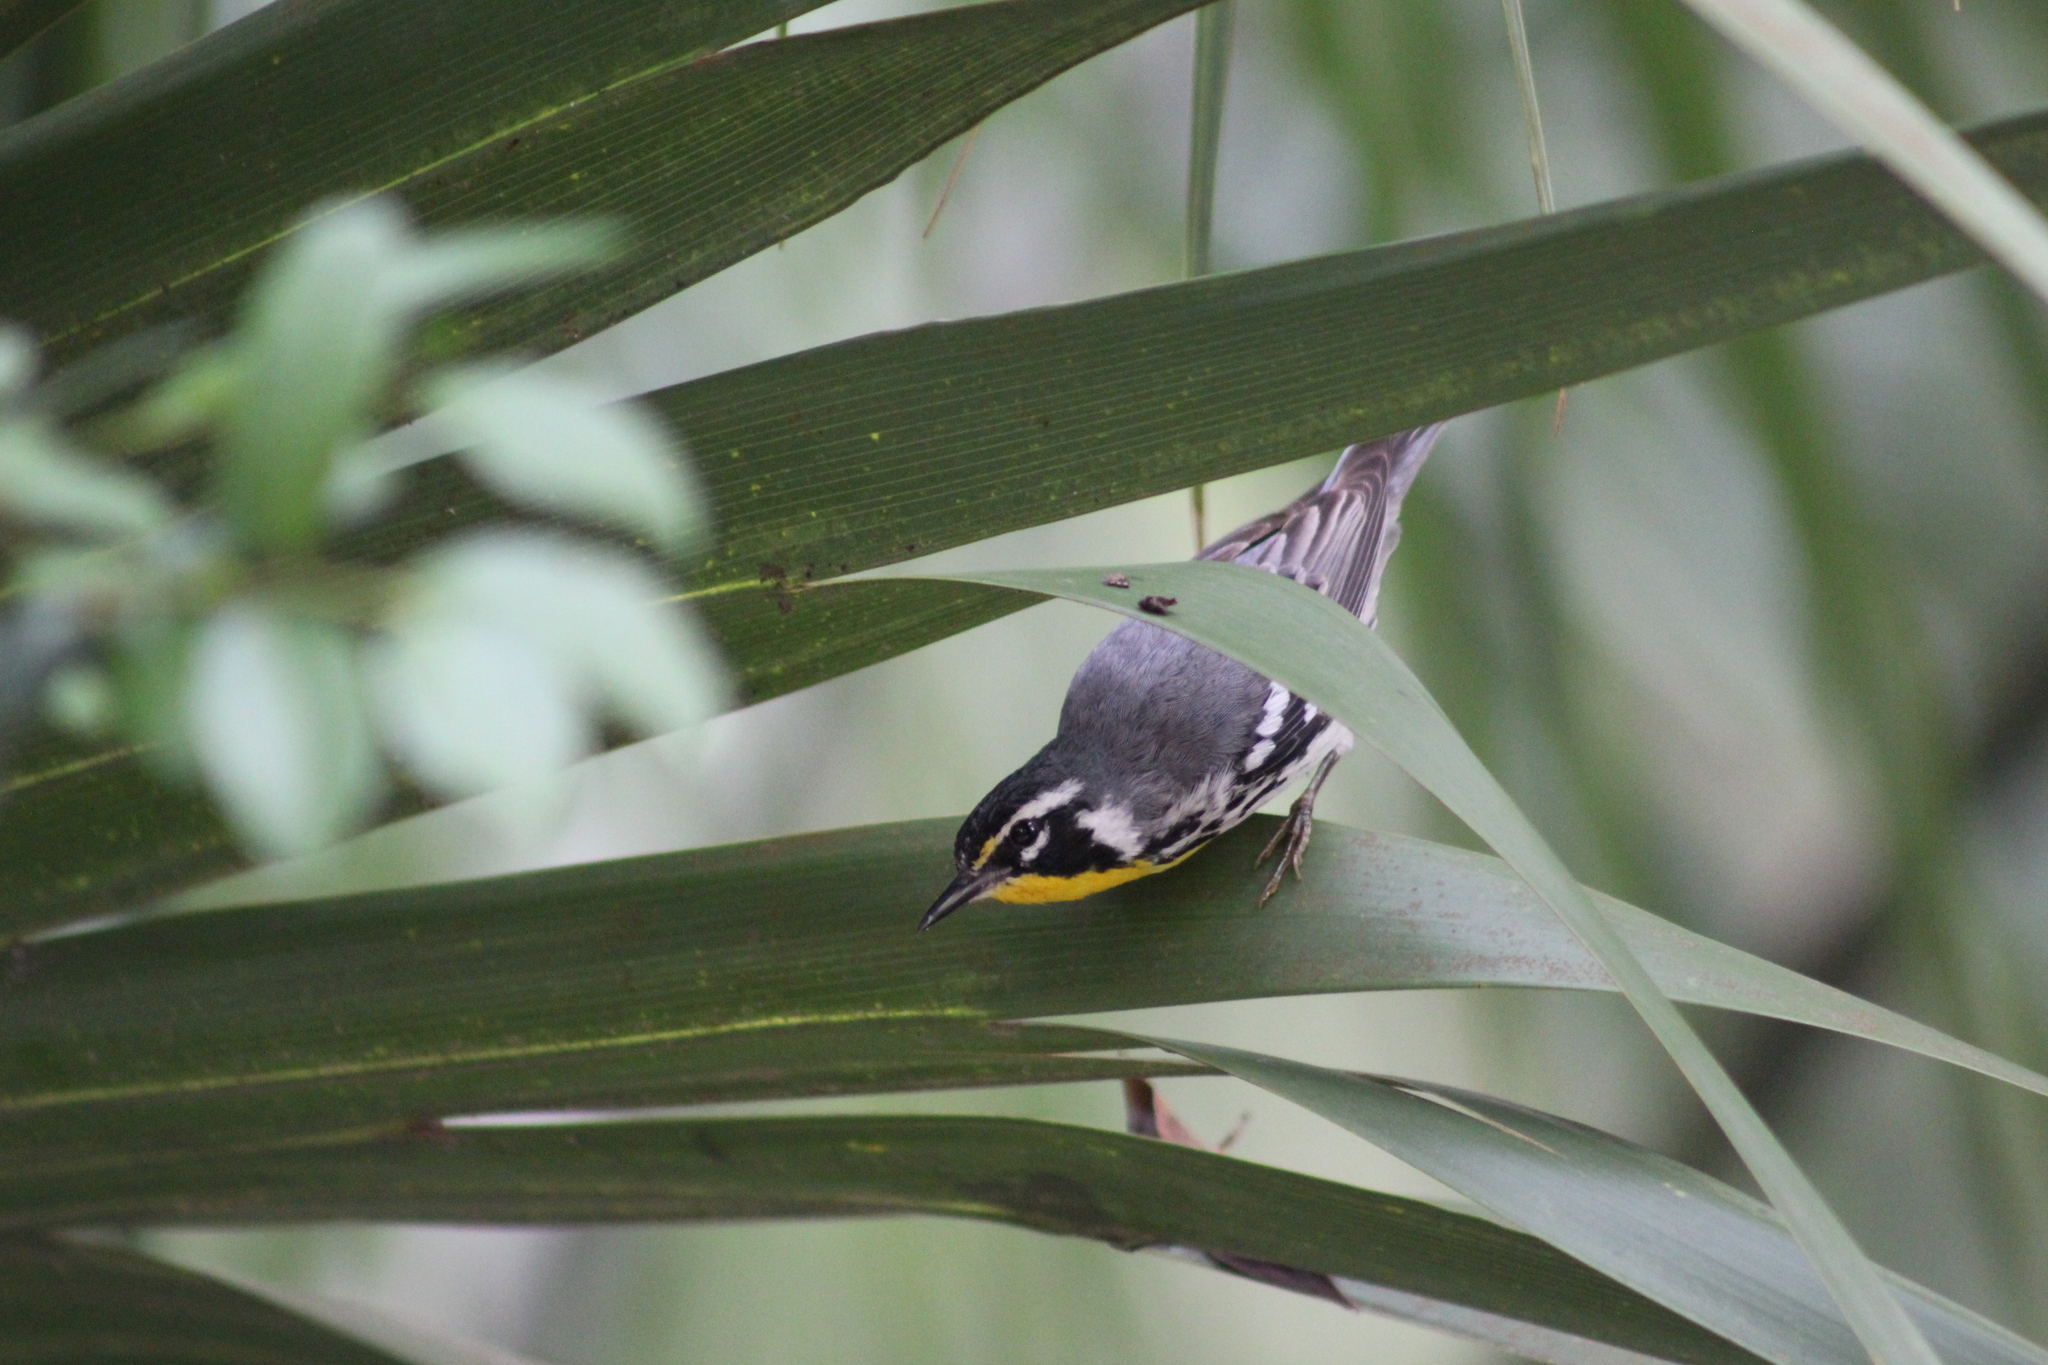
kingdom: Animalia
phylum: Chordata
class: Aves
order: Passeriformes
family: Parulidae
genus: Setophaga
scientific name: Setophaga dominica
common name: Yellow-throated warbler
